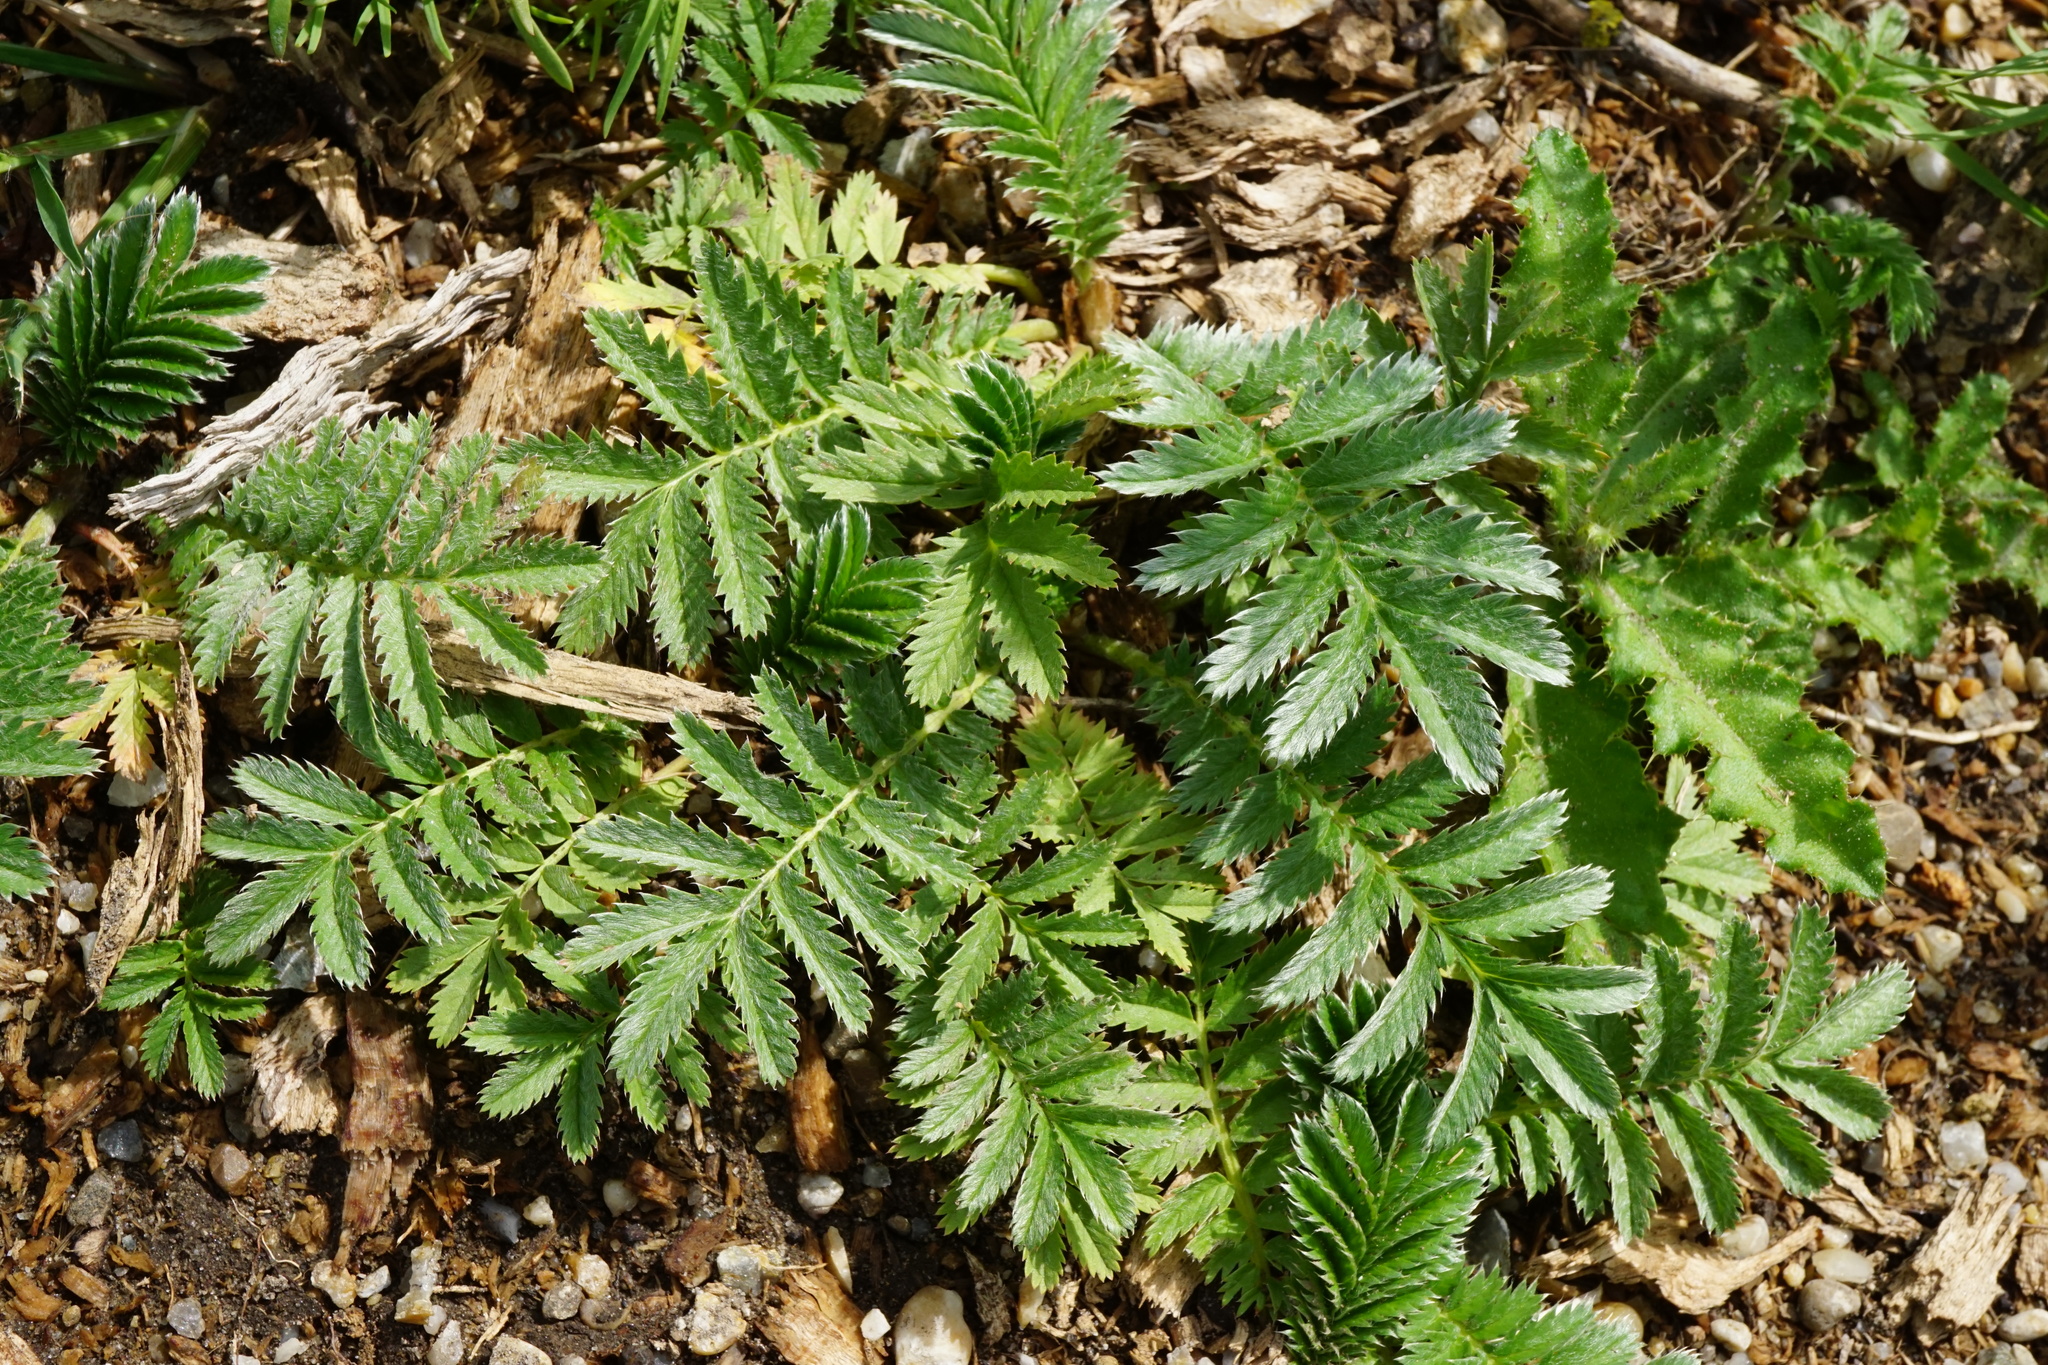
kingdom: Plantae
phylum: Tracheophyta
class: Magnoliopsida
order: Rosales
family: Rosaceae
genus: Argentina
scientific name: Argentina anserina
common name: Common silverweed
